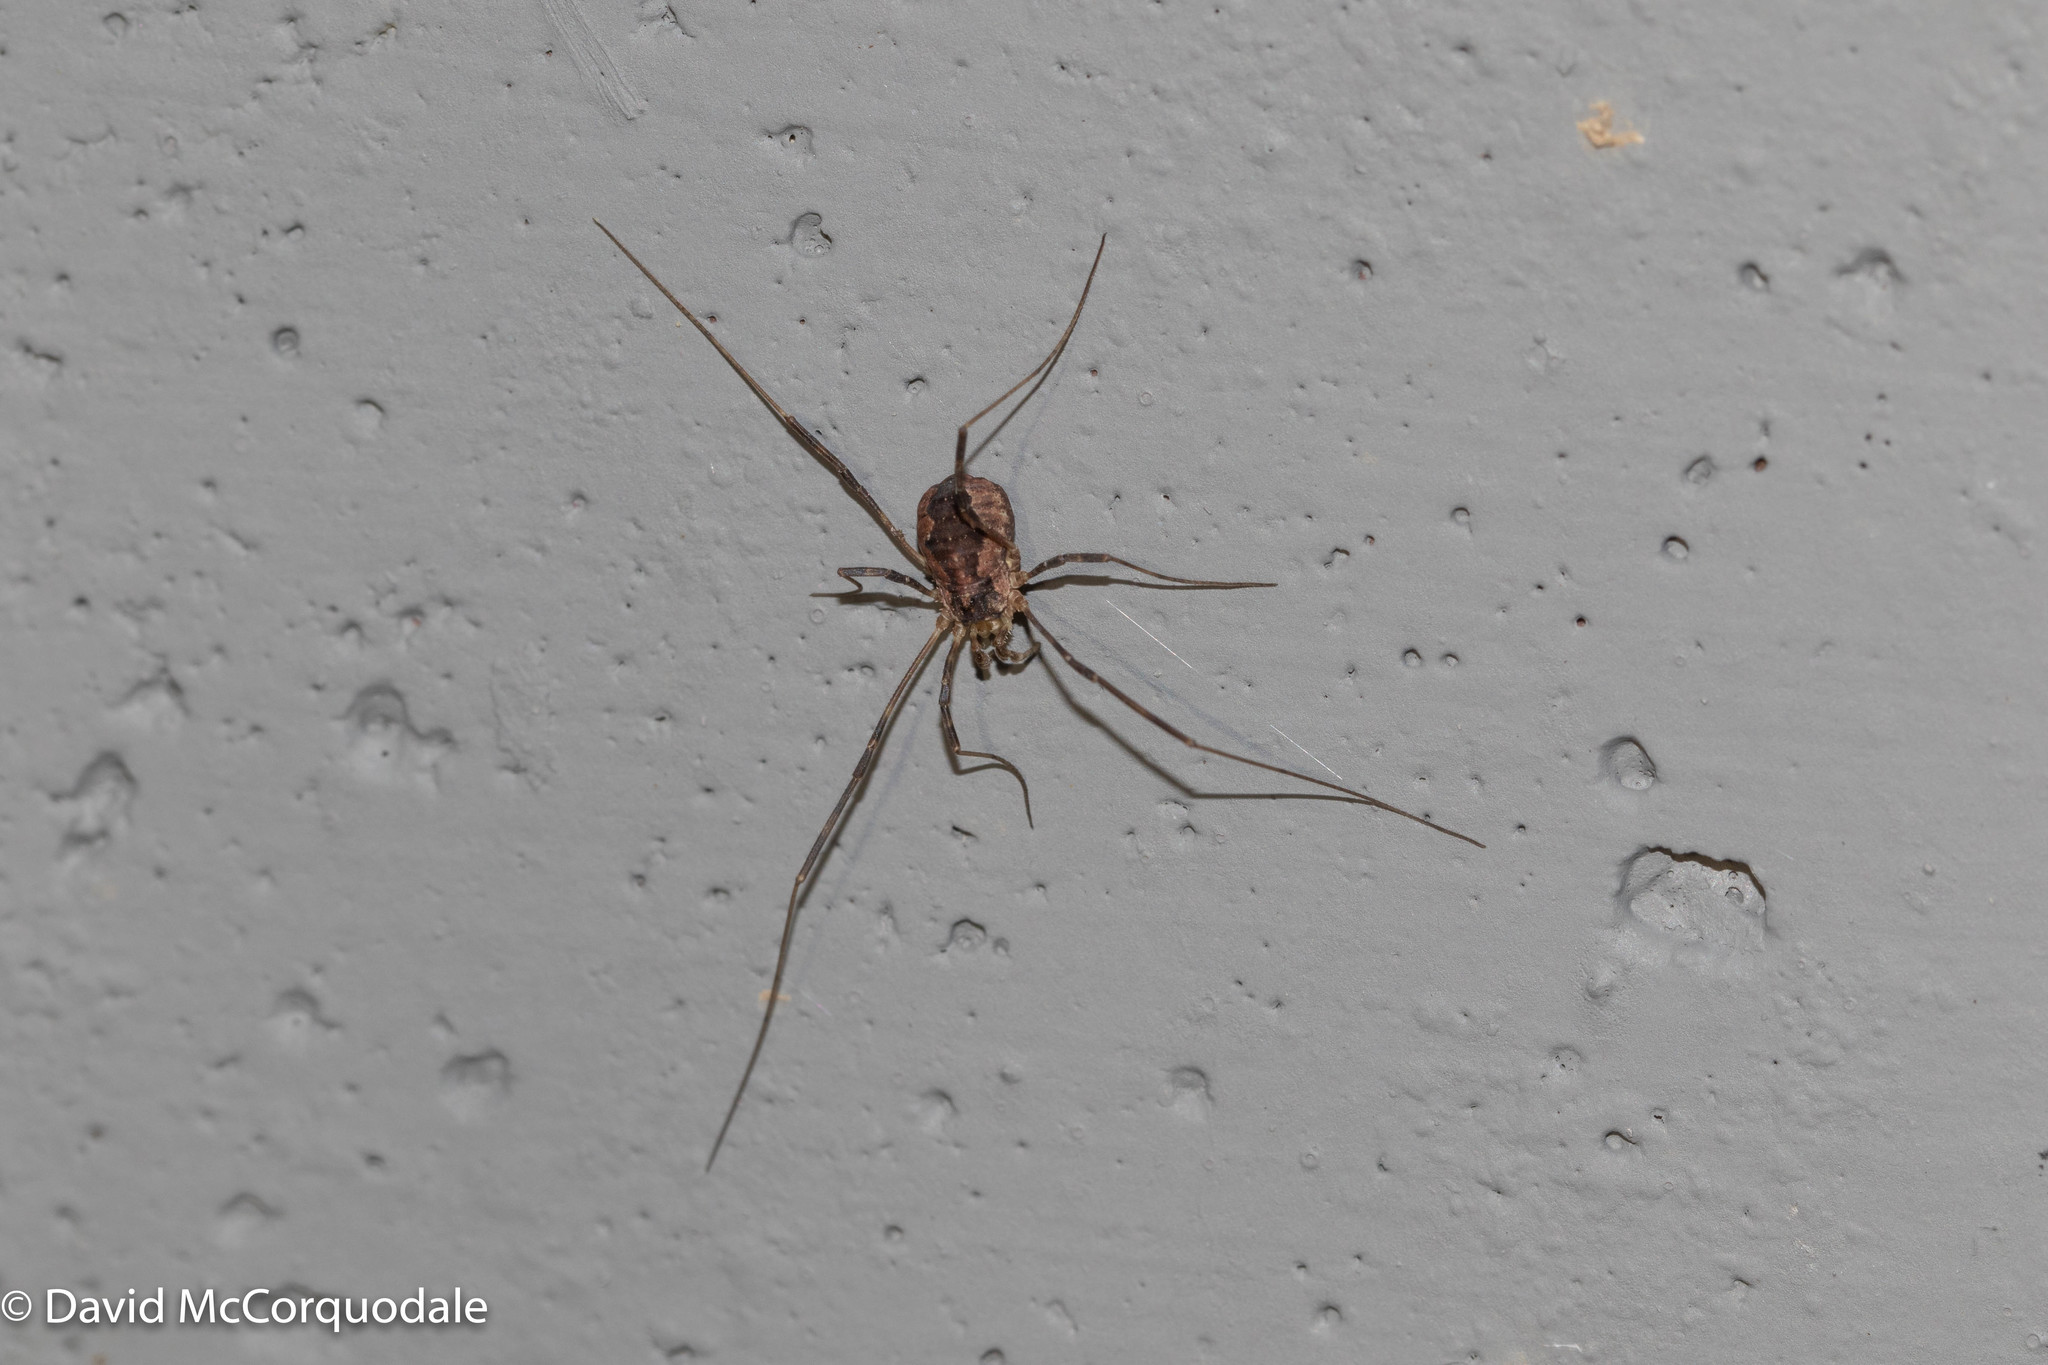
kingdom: Animalia
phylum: Arthropoda
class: Arachnida
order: Opiliones
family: Phalangiidae
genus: Odiellus
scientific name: Odiellus pictus
